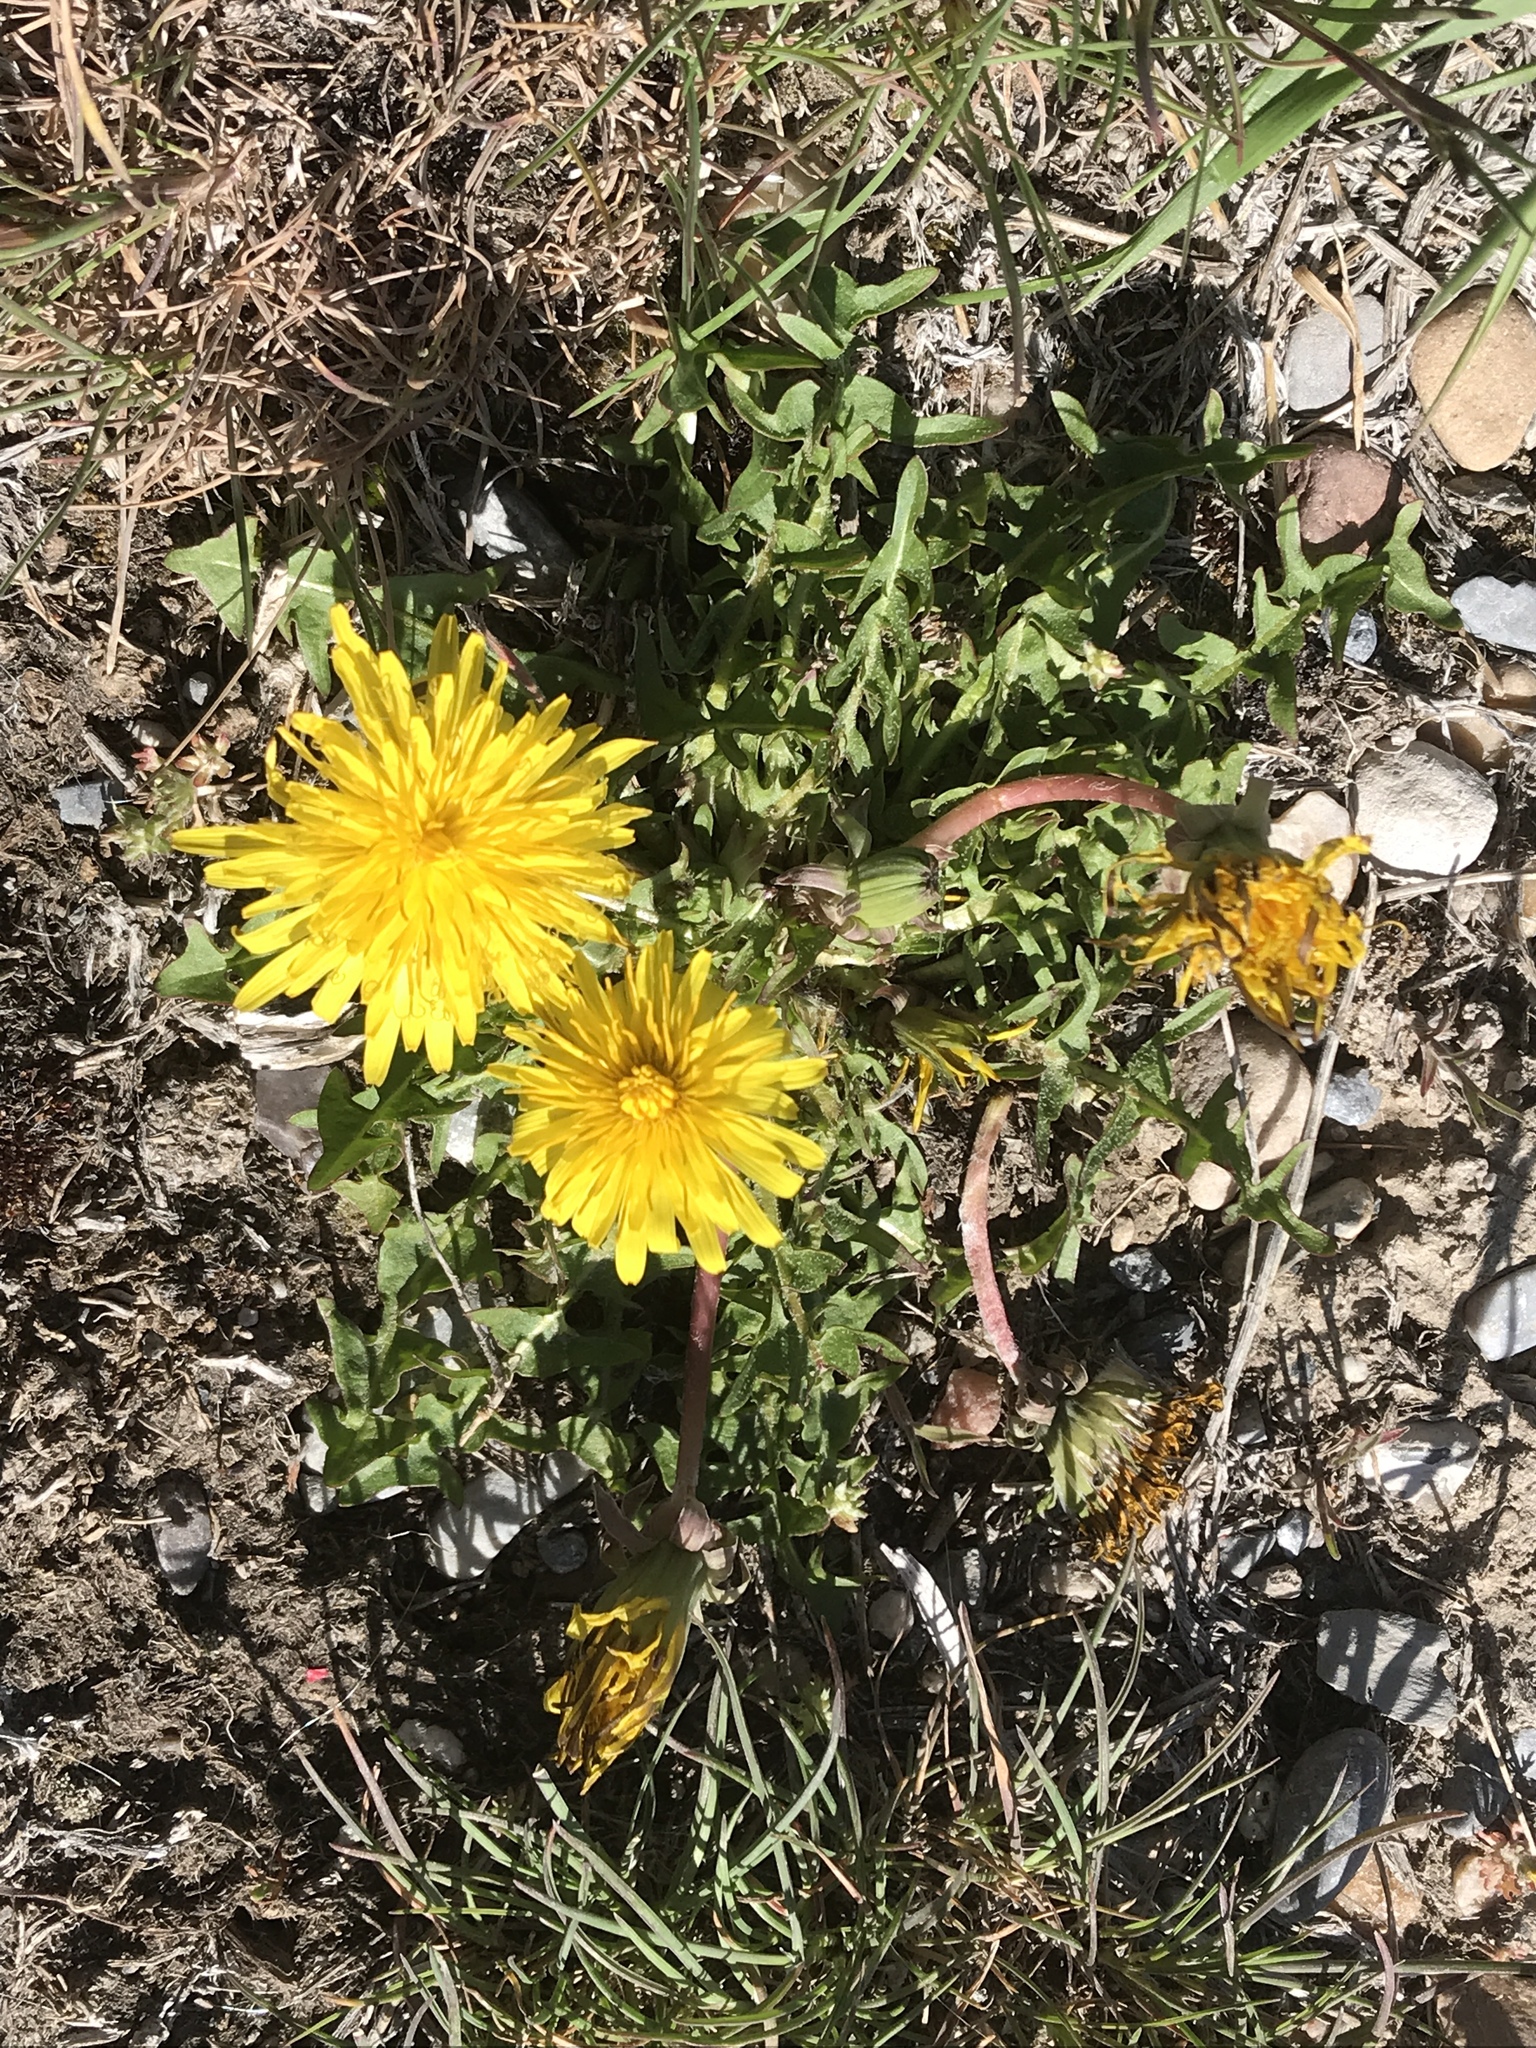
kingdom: Plantae
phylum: Tracheophyta
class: Magnoliopsida
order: Asterales
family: Asteraceae
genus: Taraxacum
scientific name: Taraxacum officinale
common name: Common dandelion
